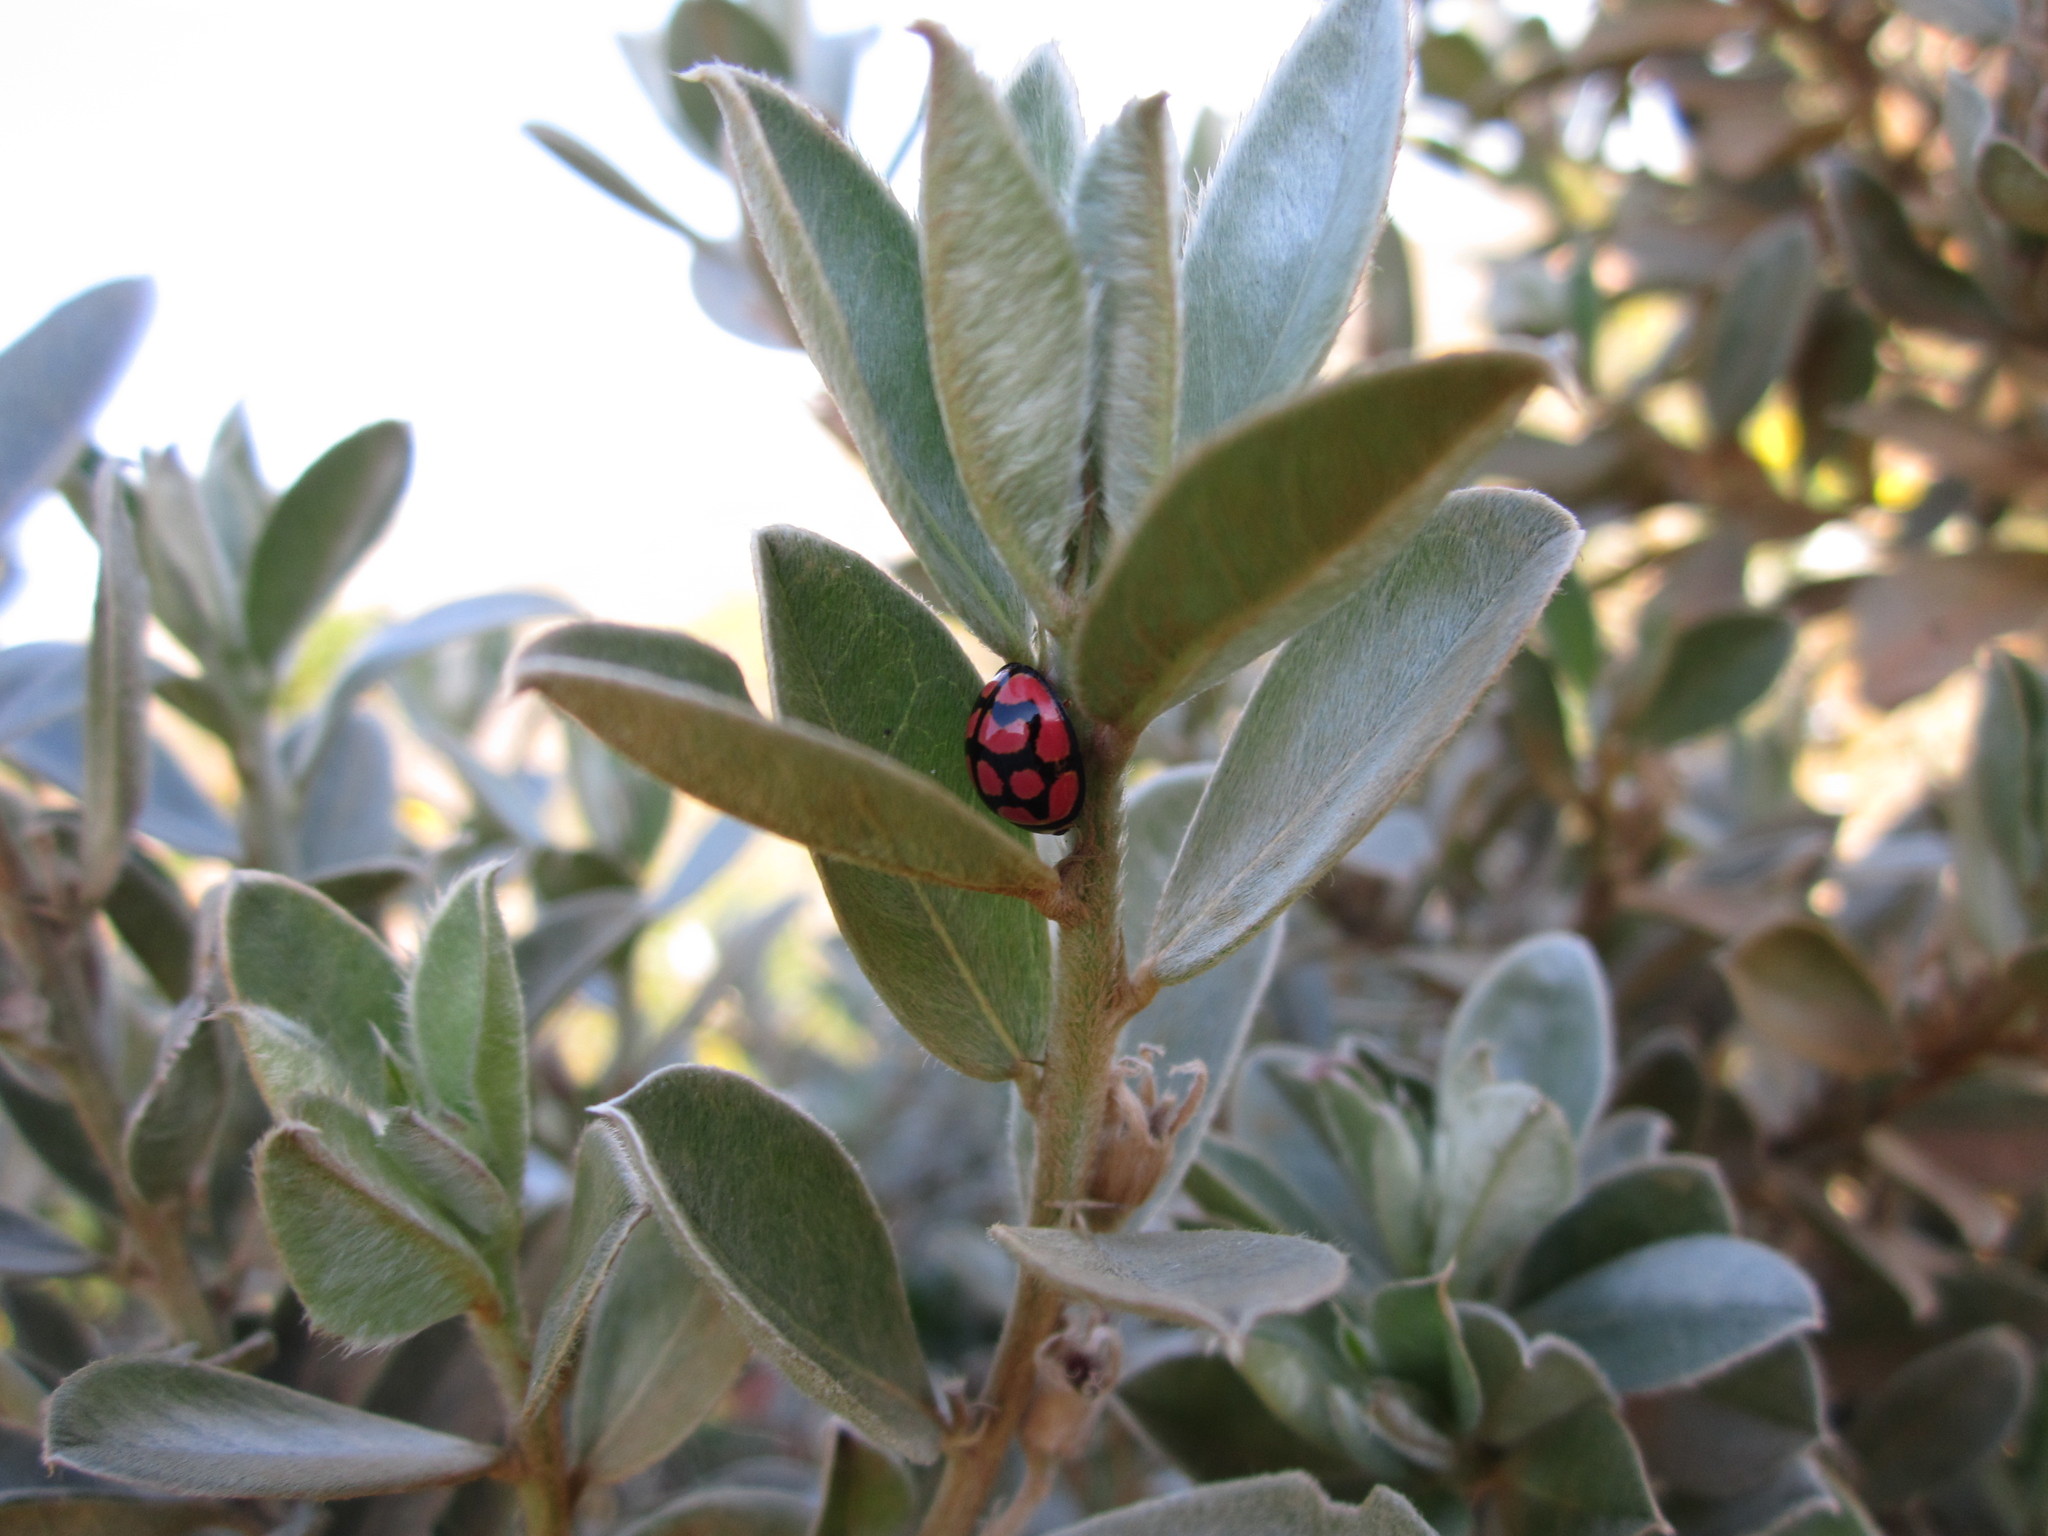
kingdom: Animalia
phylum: Arthropoda
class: Insecta
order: Coleoptera
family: Coccinellidae
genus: Cheilomenes
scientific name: Cheilomenes lunata
